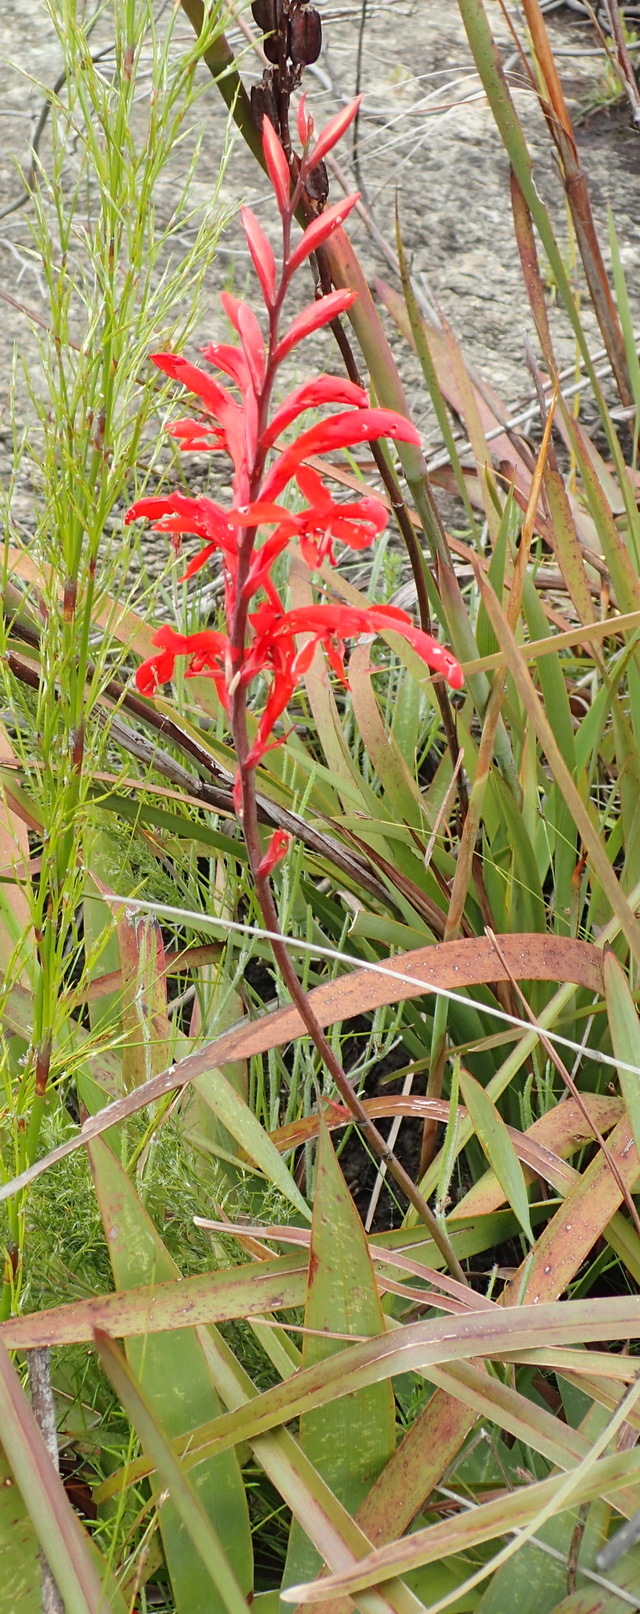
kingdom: Plantae
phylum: Tracheophyta
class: Liliopsida
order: Asparagales
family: Iridaceae
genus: Tritoniopsis
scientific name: Tritoniopsis caffra
